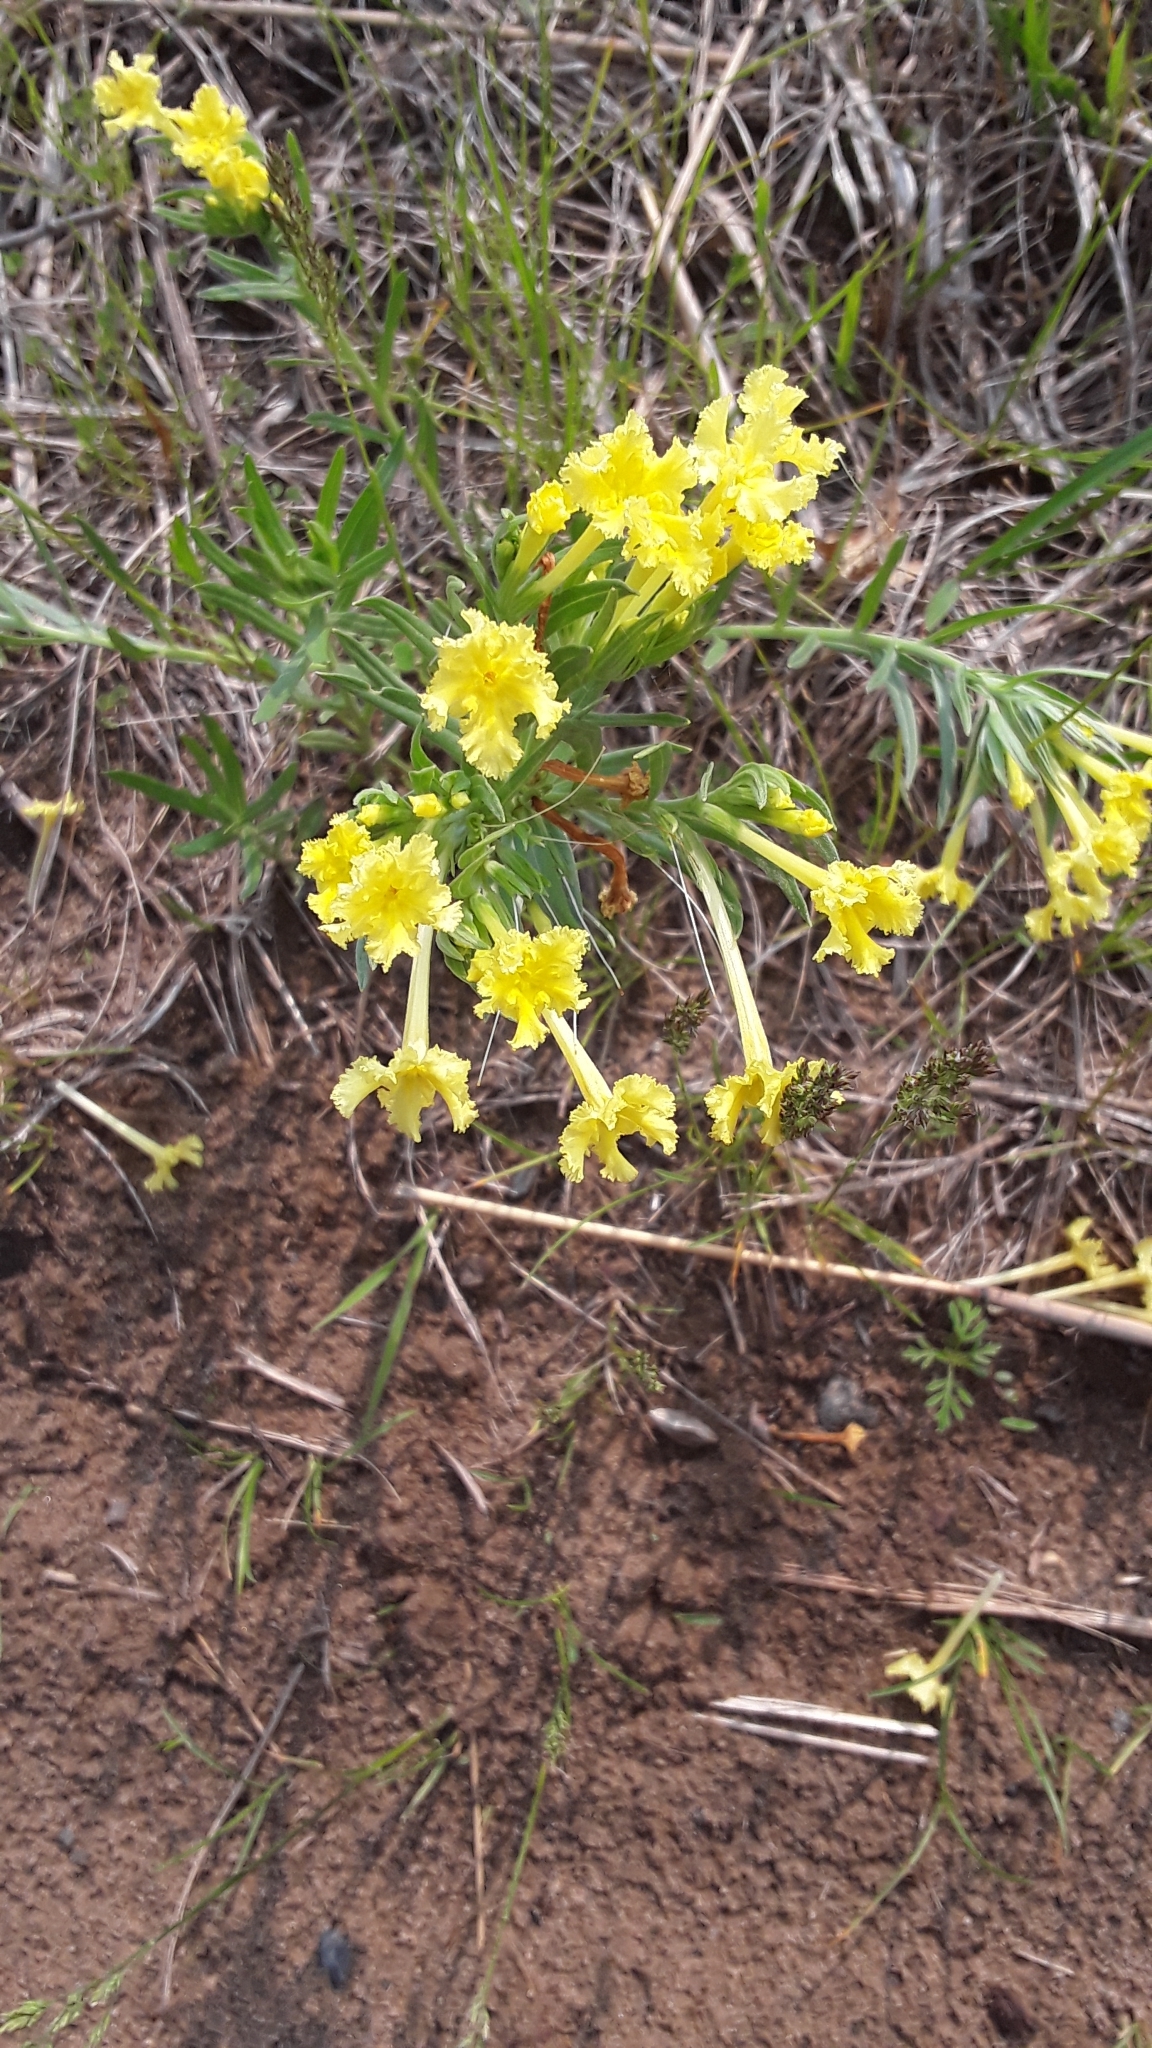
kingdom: Plantae
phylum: Tracheophyta
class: Magnoliopsida
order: Boraginales
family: Boraginaceae
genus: Lithospermum
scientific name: Lithospermum incisum
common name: Fringed gromwell
